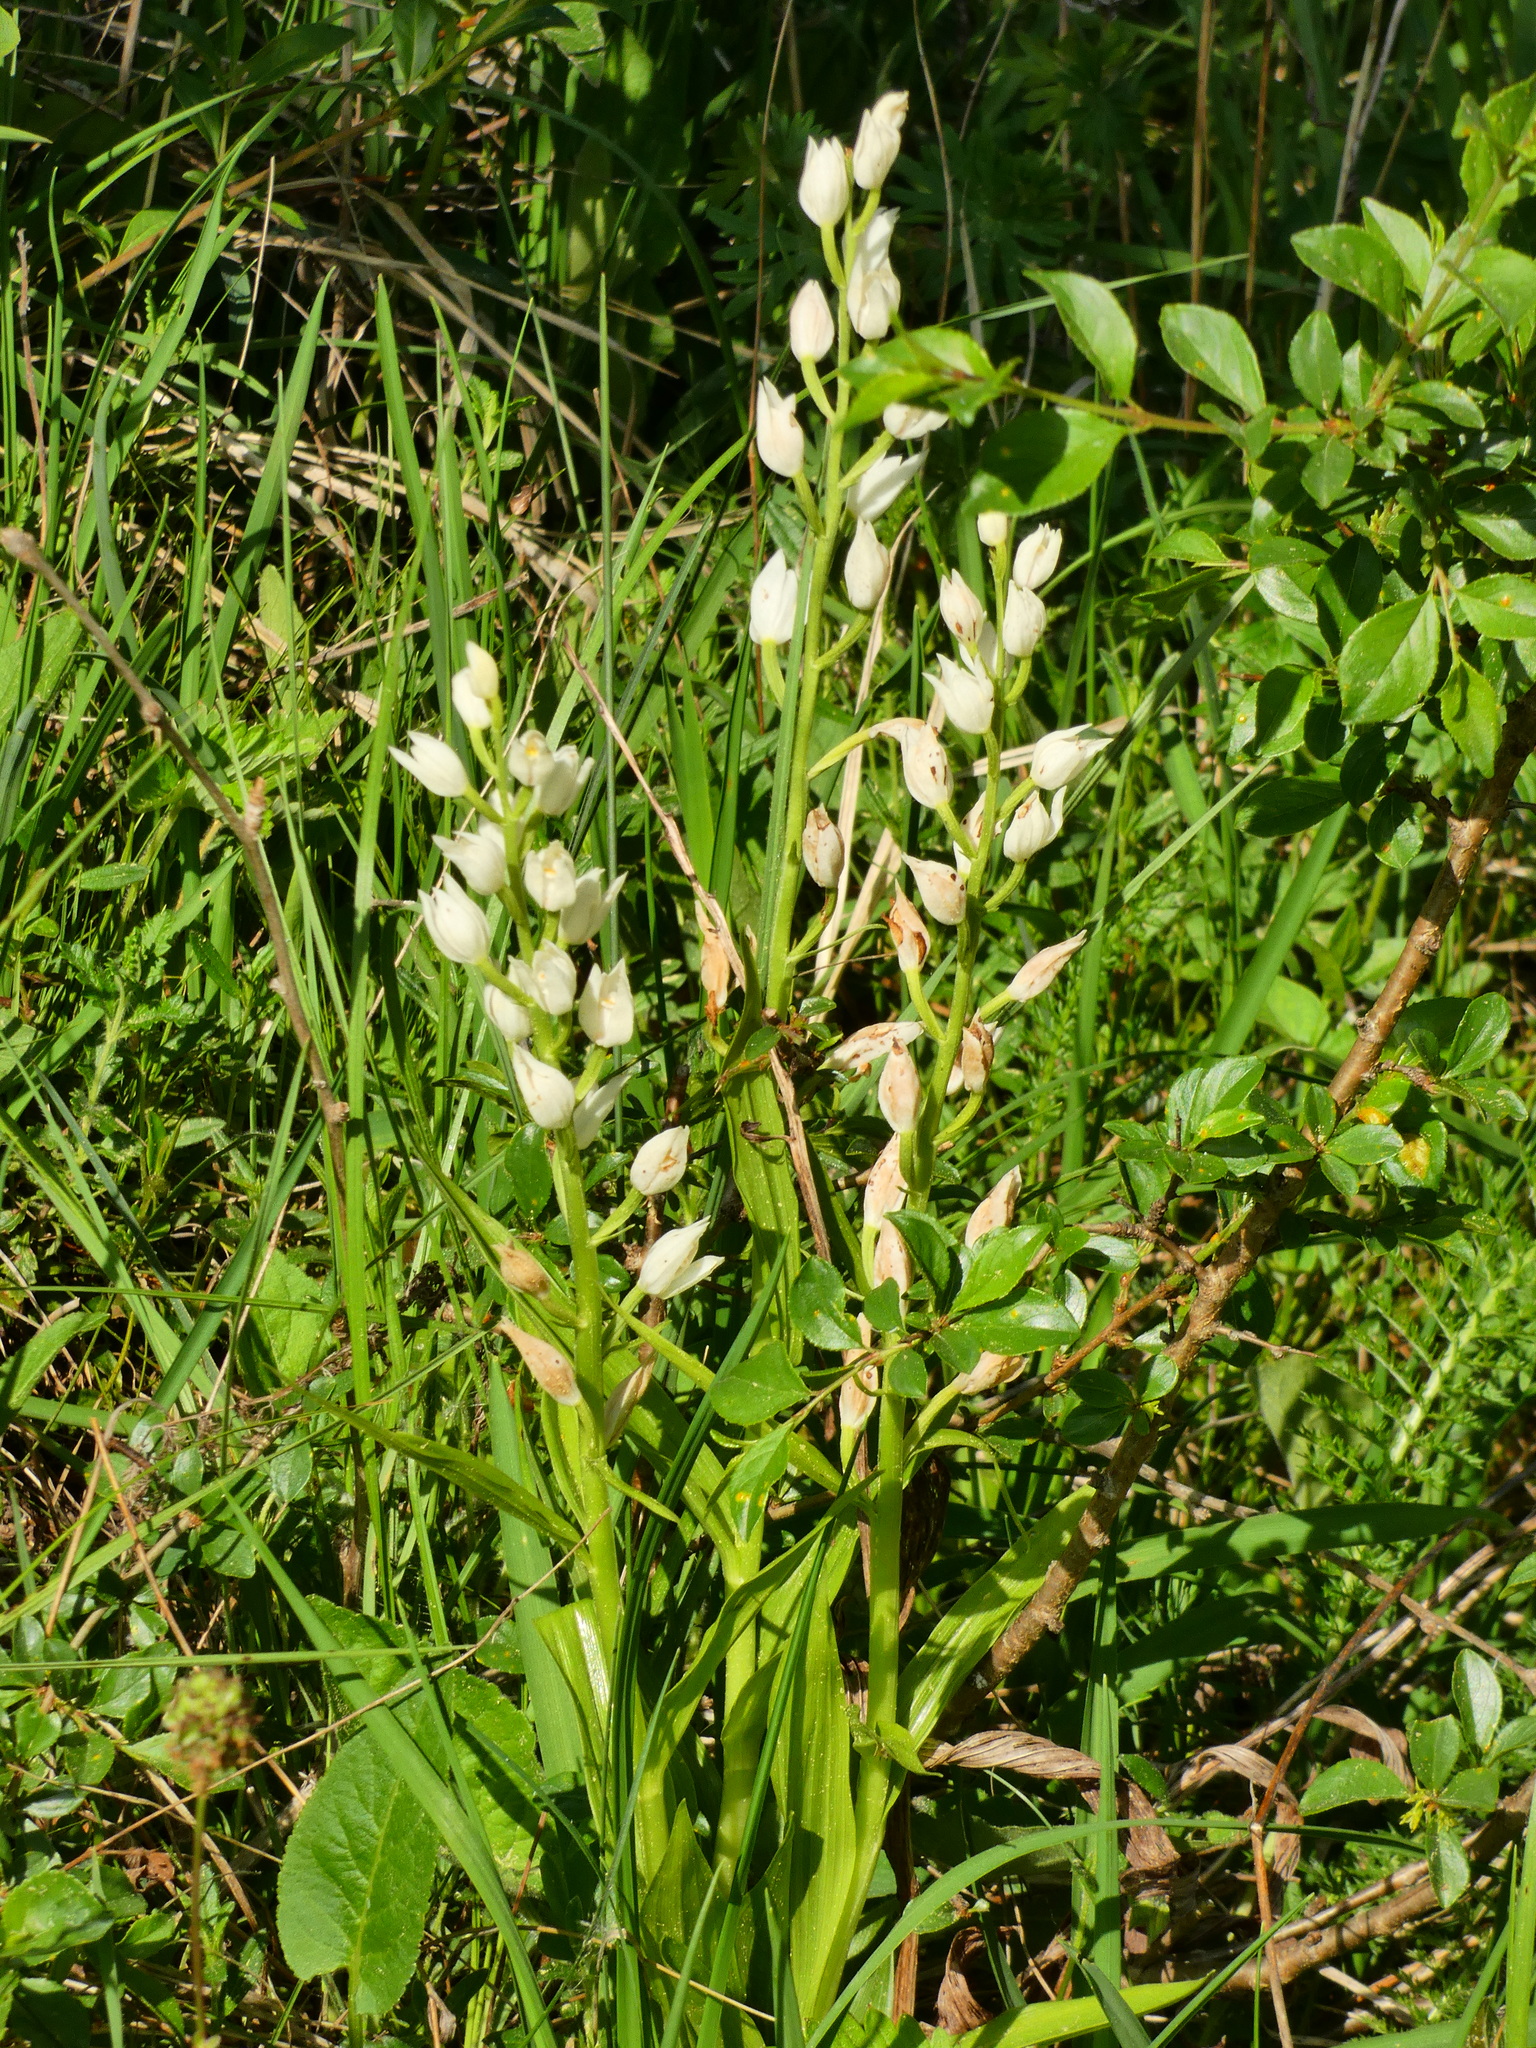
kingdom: Plantae
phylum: Tracheophyta
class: Liliopsida
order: Asparagales
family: Orchidaceae
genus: Cephalanthera
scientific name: Cephalanthera longifolia
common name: Narrow-leaved helleborine
